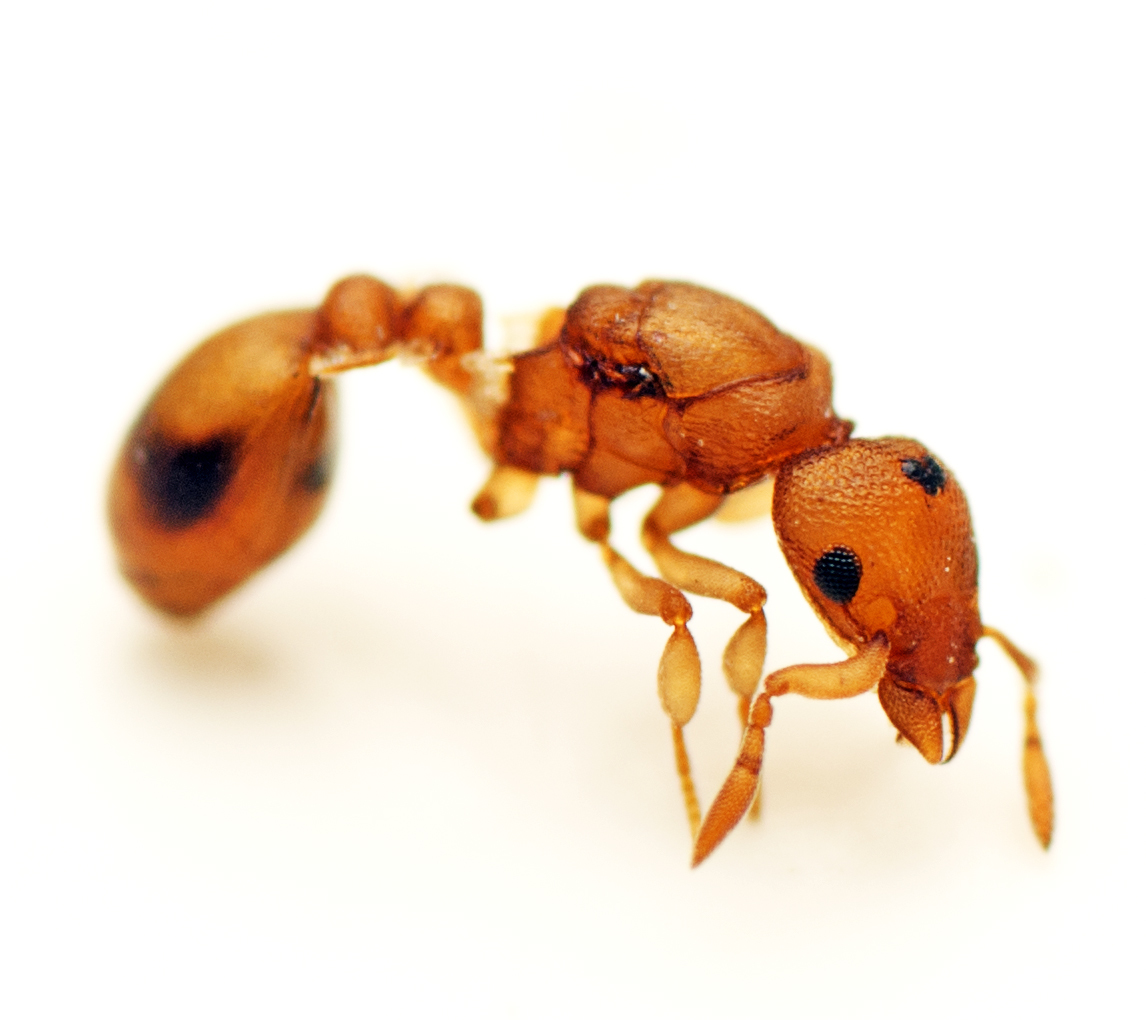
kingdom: Animalia
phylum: Arthropoda
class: Insecta
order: Hymenoptera
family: Formicidae
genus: Colobostruma
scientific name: Colobostruma
